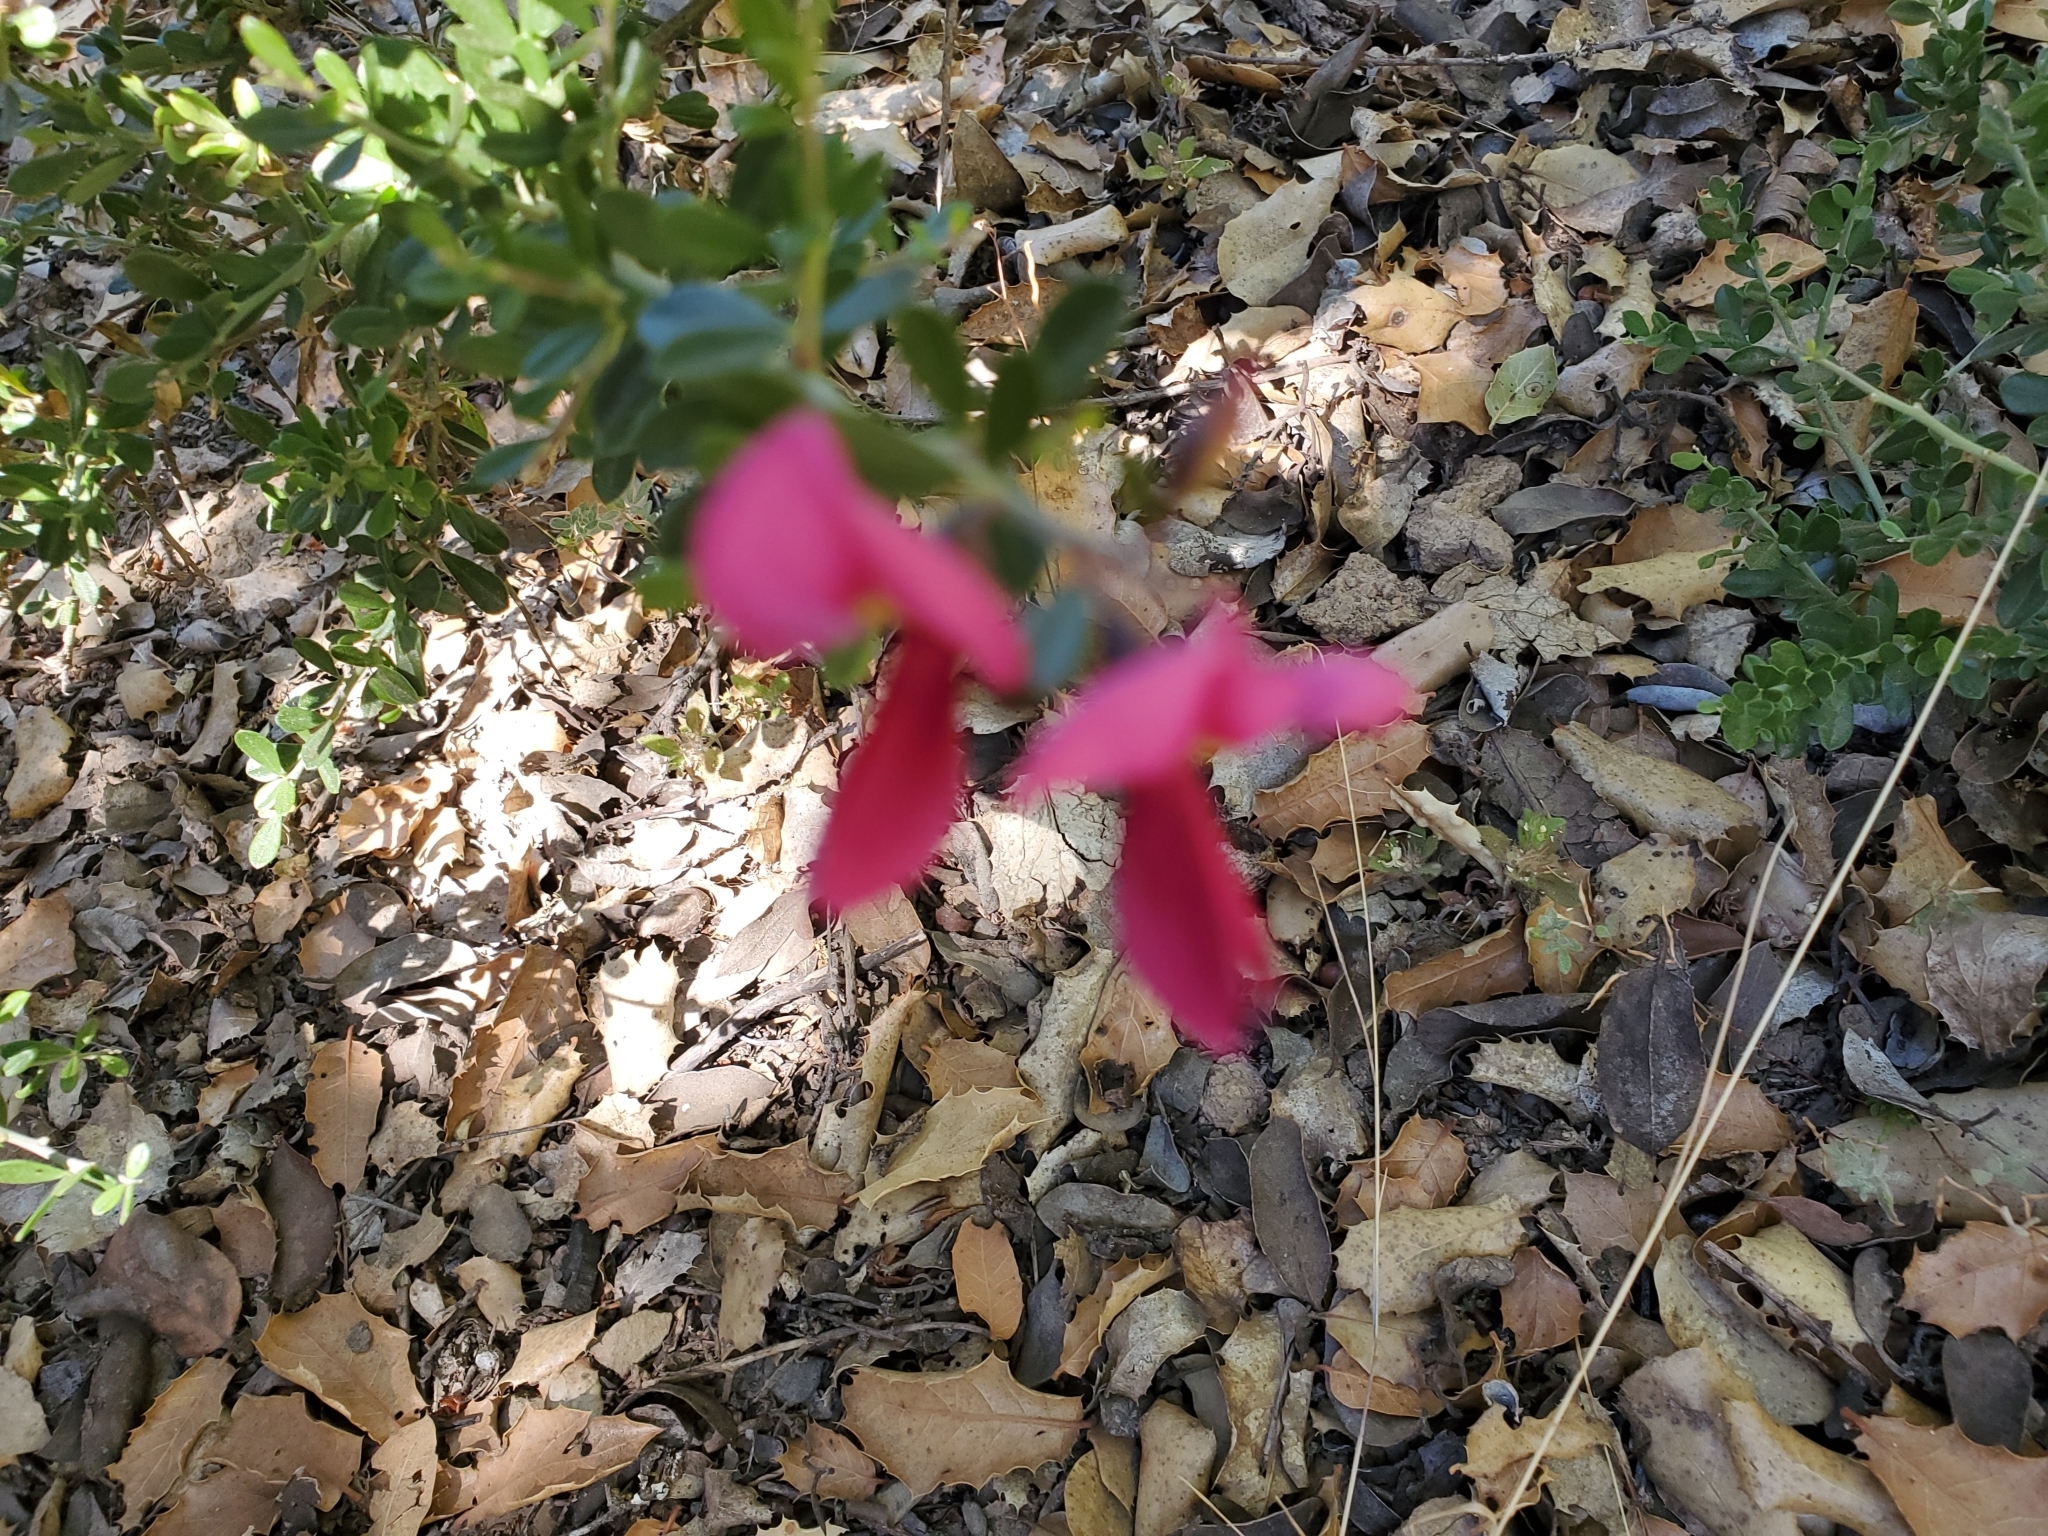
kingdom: Plantae
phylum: Tracheophyta
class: Magnoliopsida
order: Fabales
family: Fabaceae
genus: Pickeringia
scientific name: Pickeringia montana
